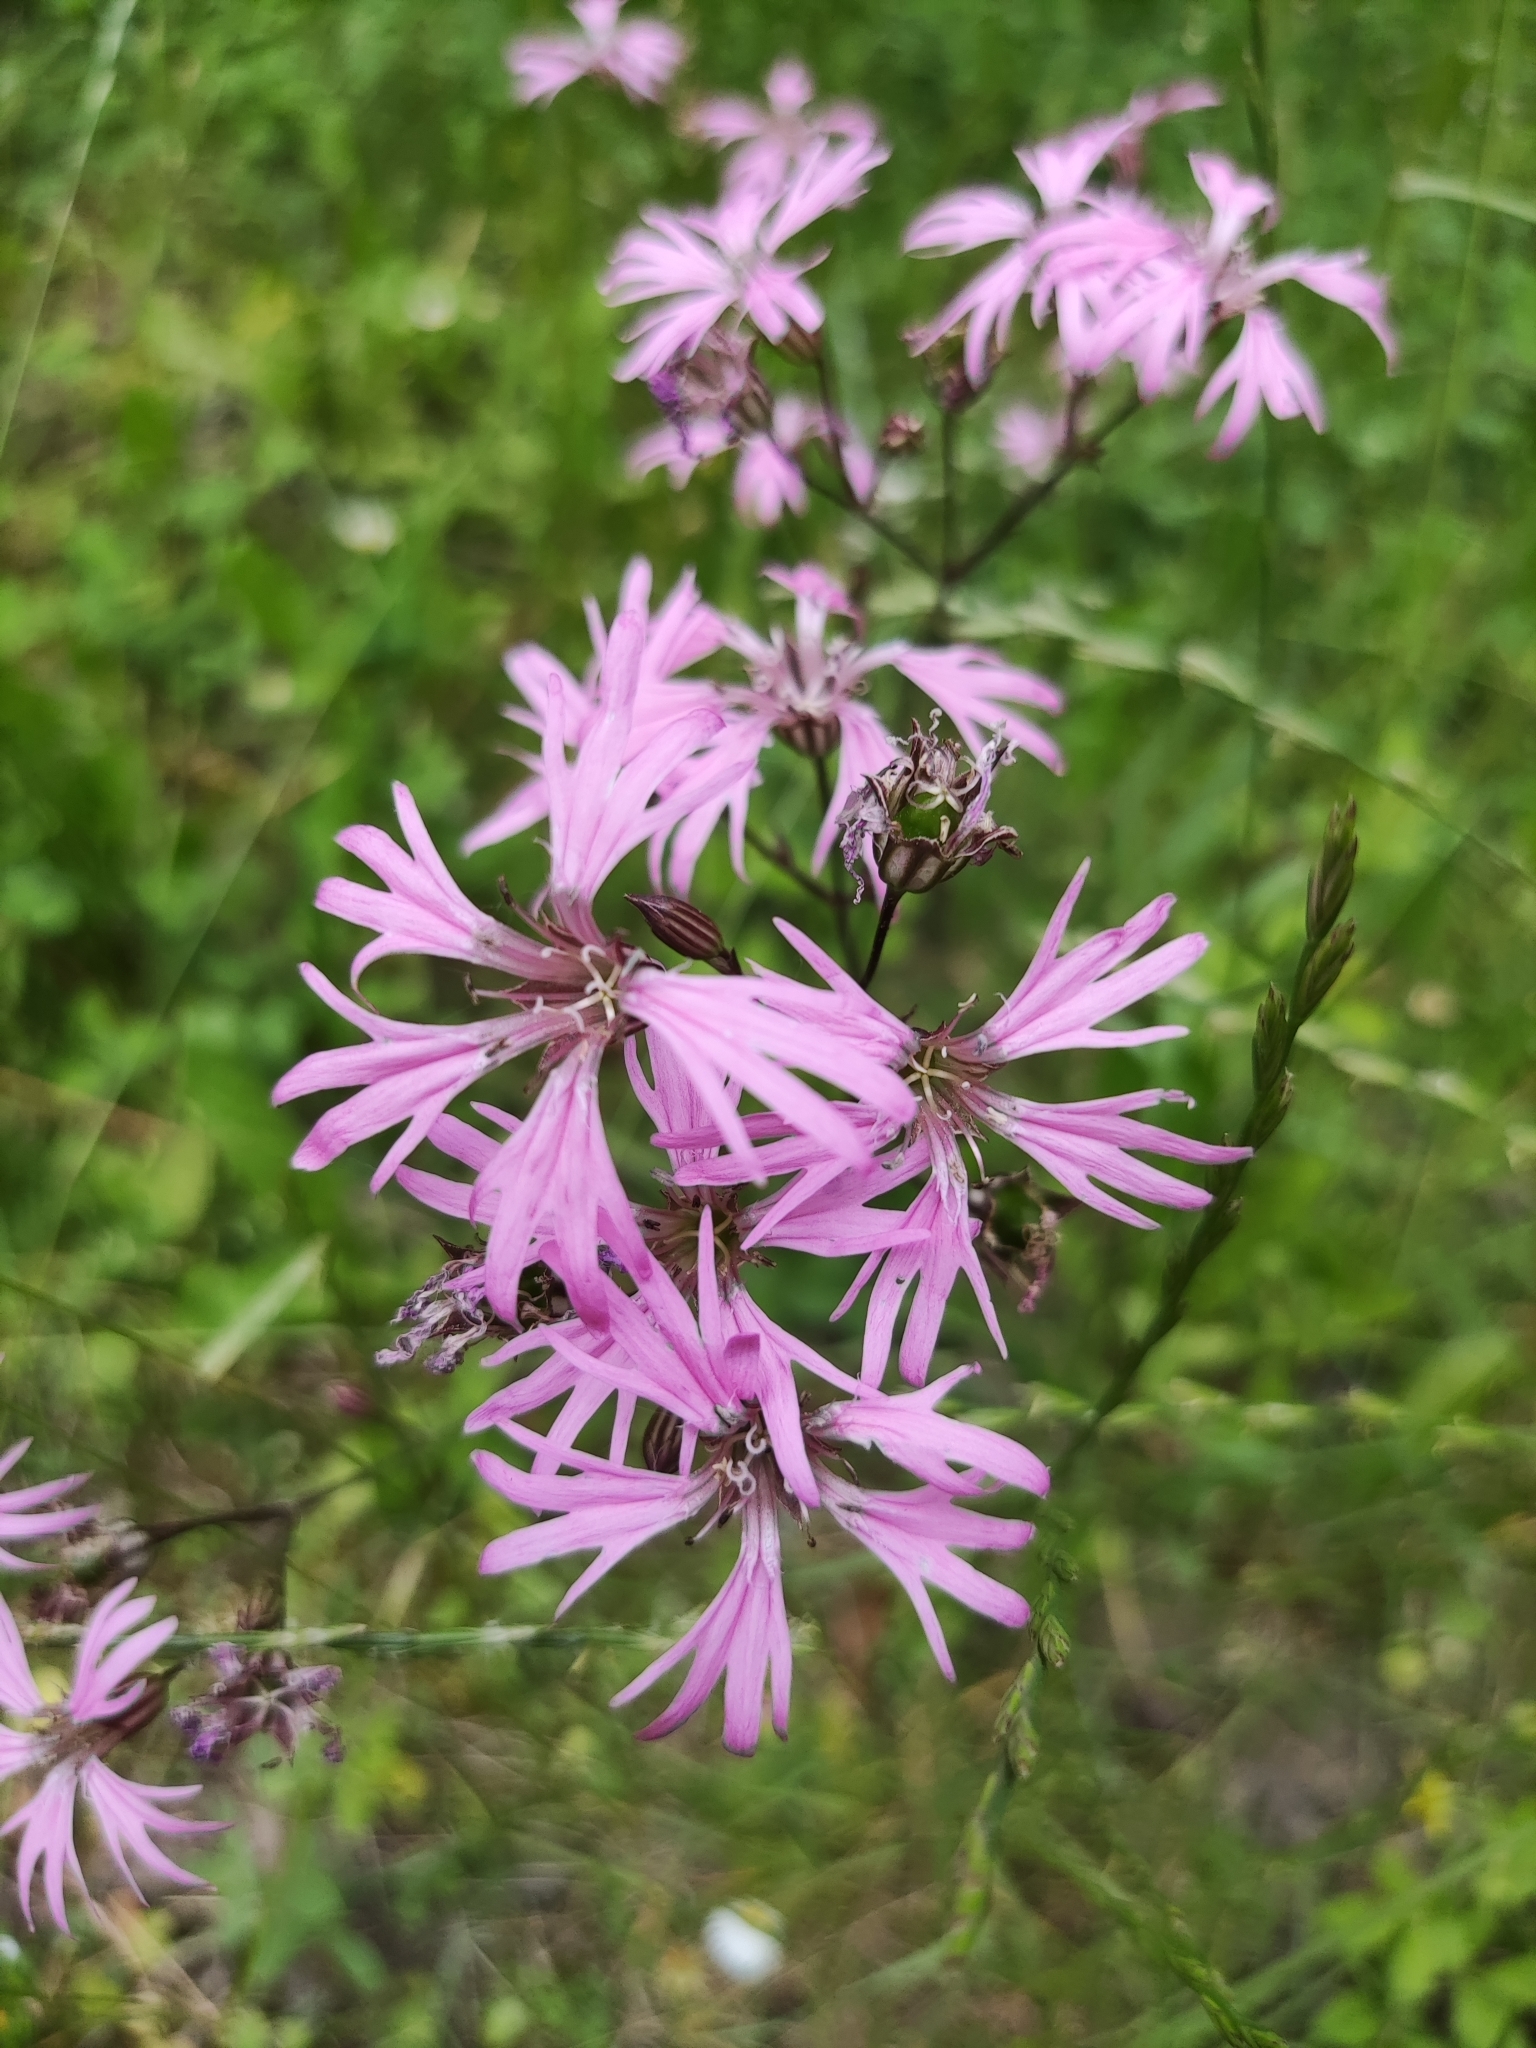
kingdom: Plantae
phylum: Tracheophyta
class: Magnoliopsida
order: Caryophyllales
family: Caryophyllaceae
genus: Silene
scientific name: Silene flos-cuculi
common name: Ragged-robin
